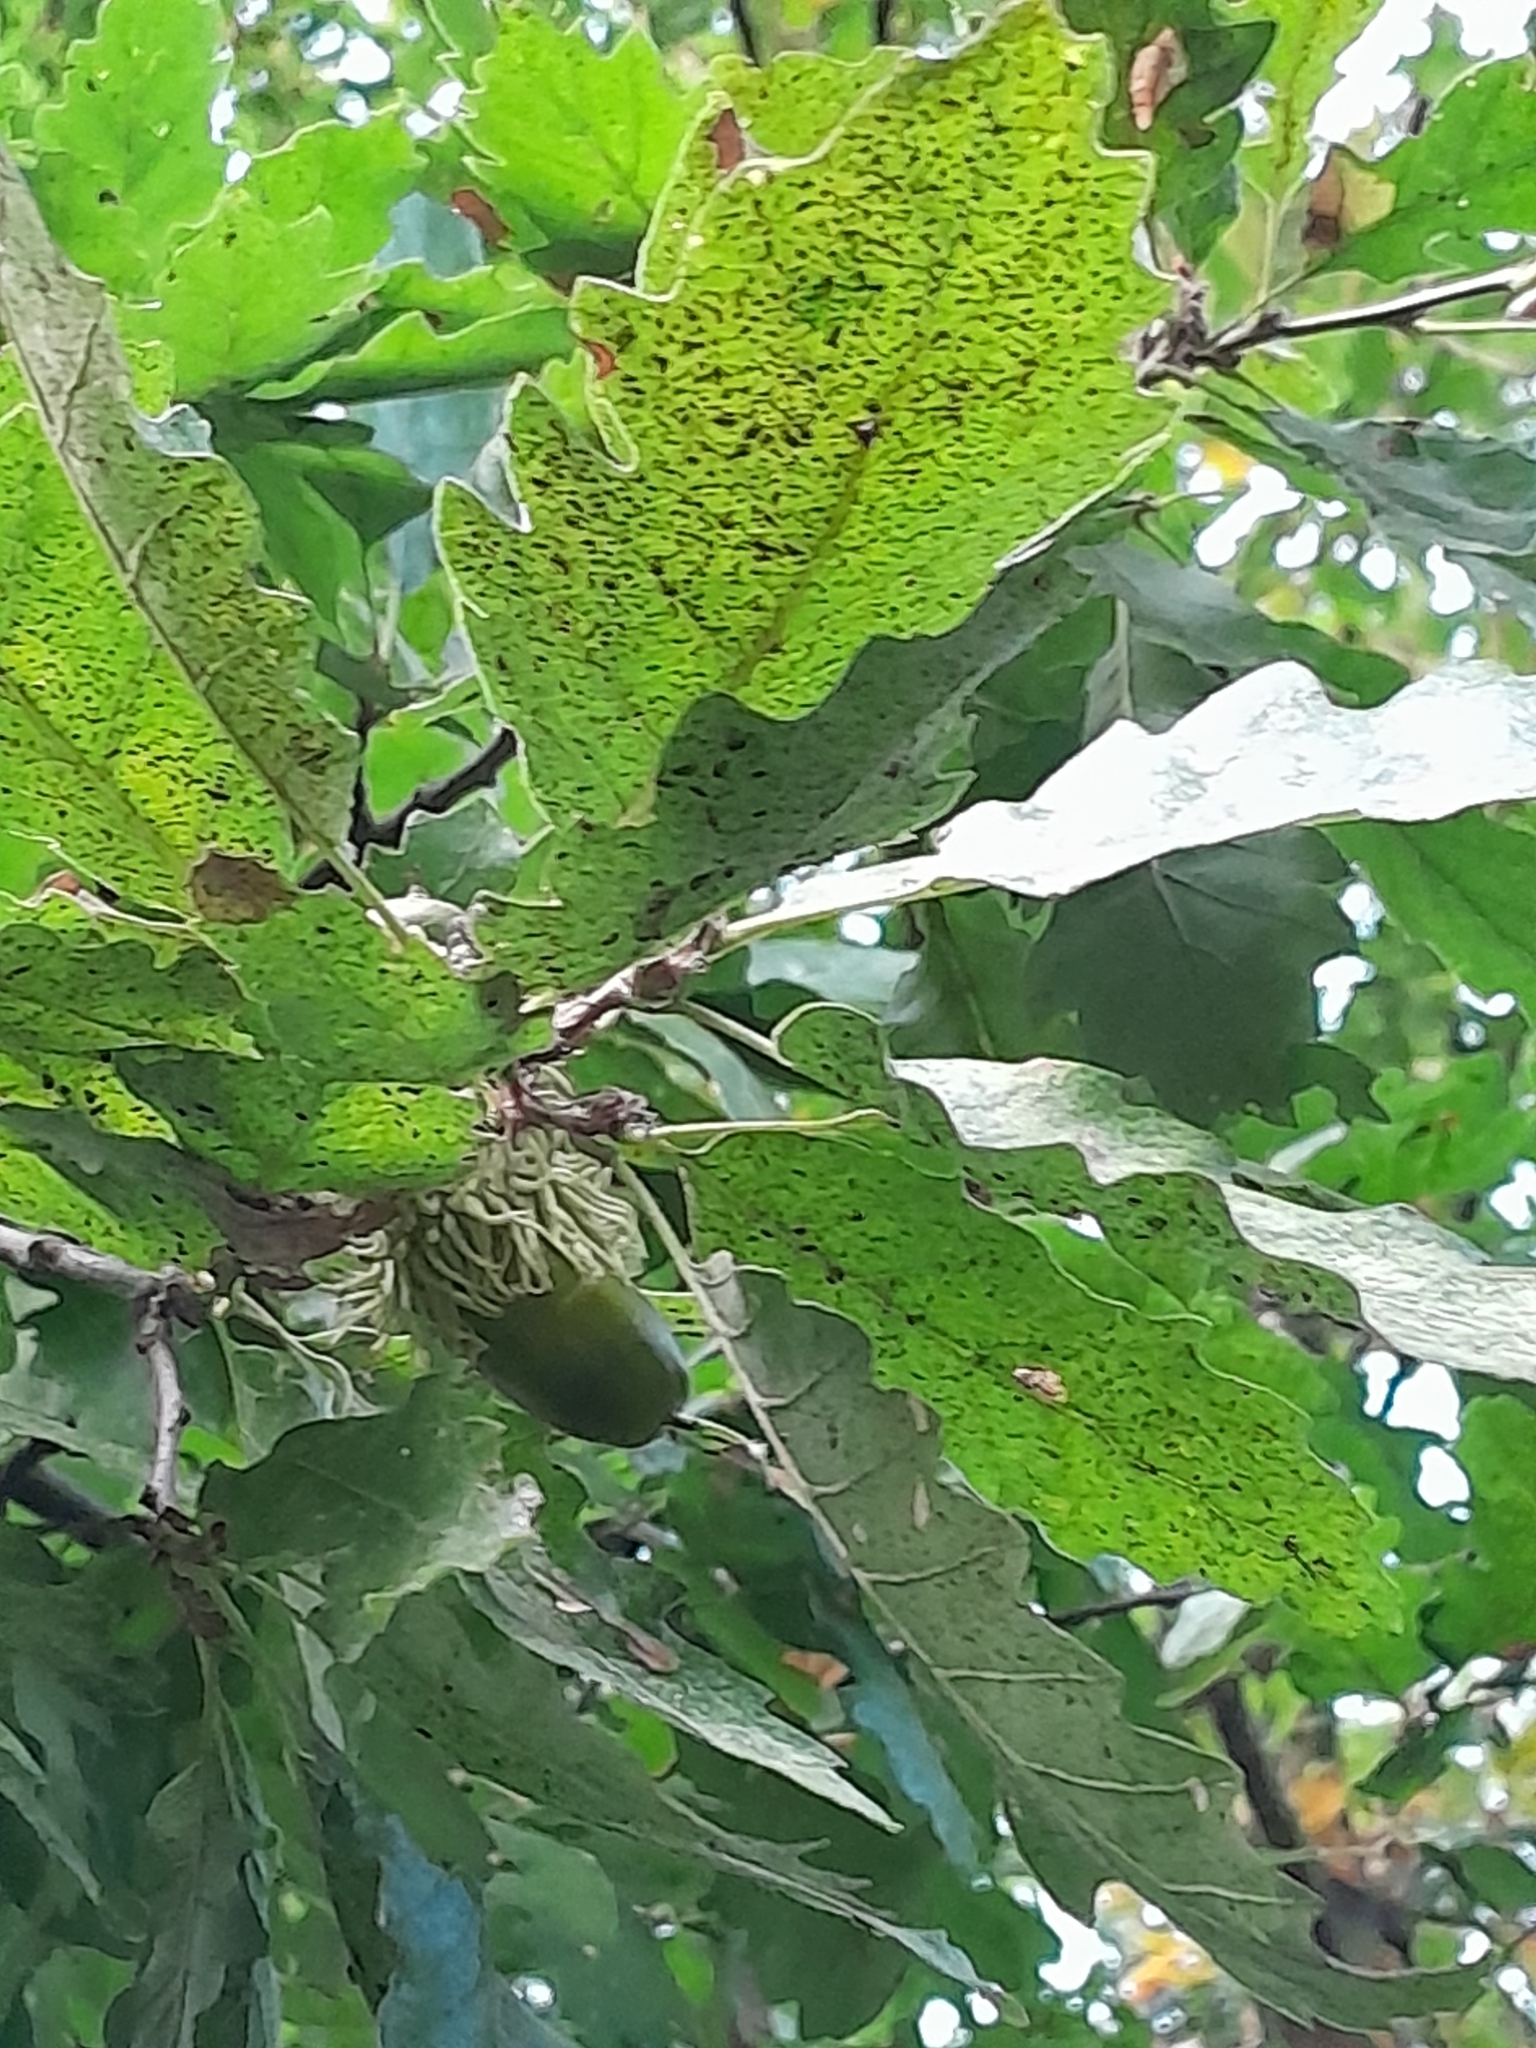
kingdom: Plantae
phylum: Tracheophyta
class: Magnoliopsida
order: Fagales
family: Fagaceae
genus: Quercus
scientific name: Quercus cerris
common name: Turkey oak
